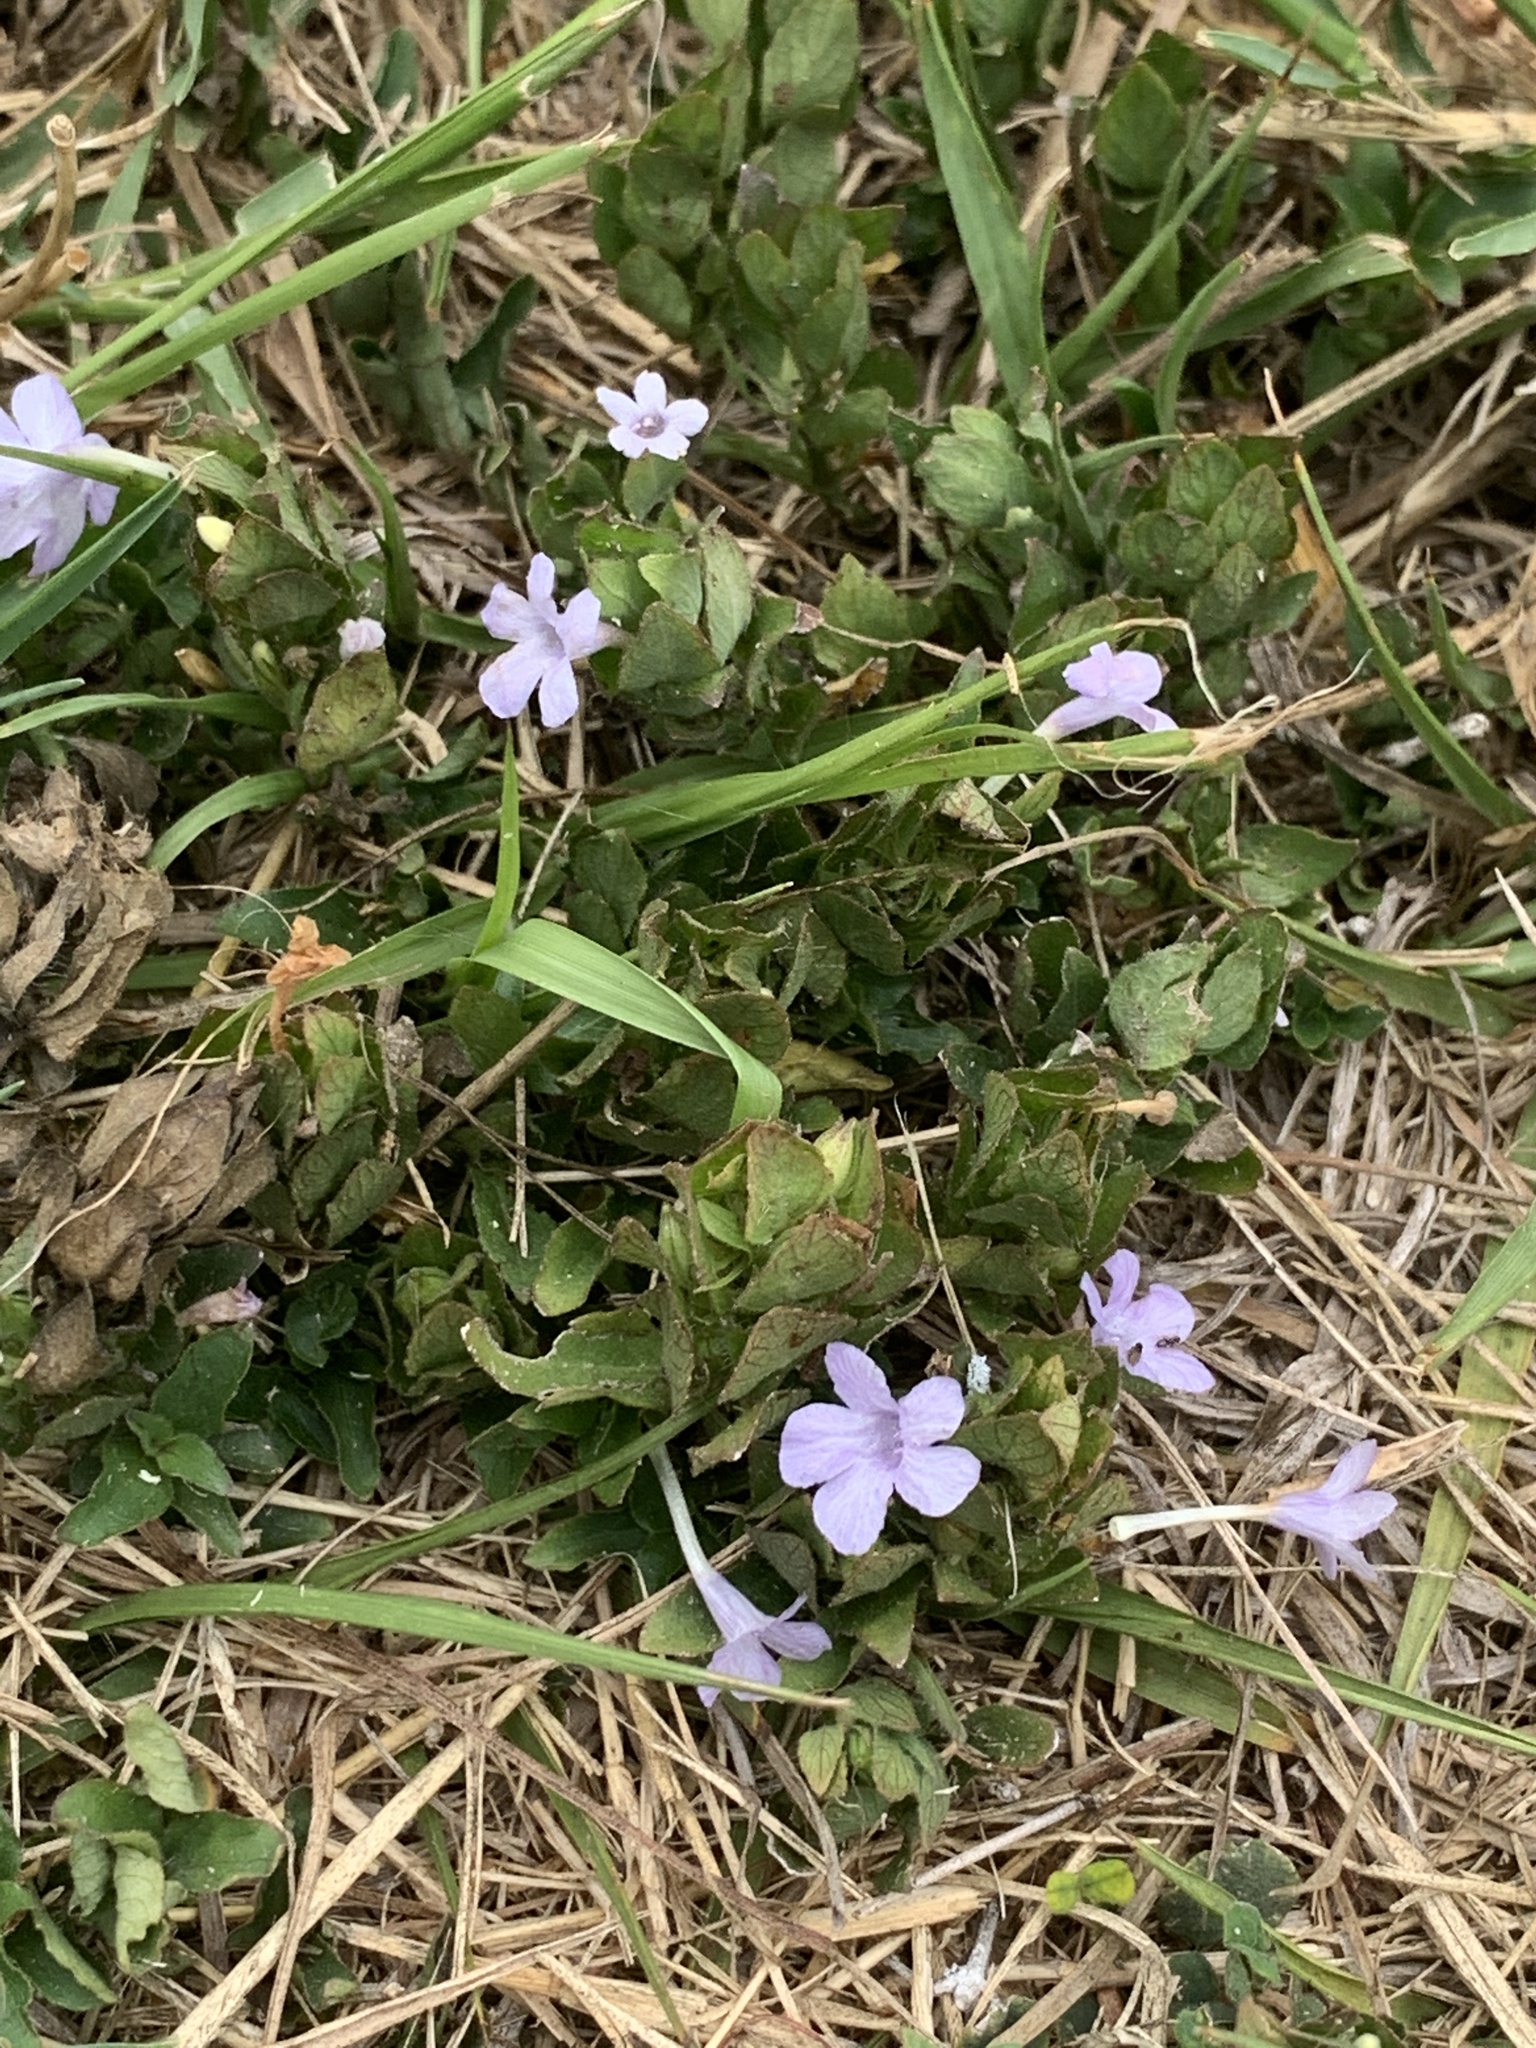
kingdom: Plantae
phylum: Tracheophyta
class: Magnoliopsida
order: Lamiales
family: Acanthaceae
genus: Ruellia
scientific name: Ruellia blechum
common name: Browne's blechum
